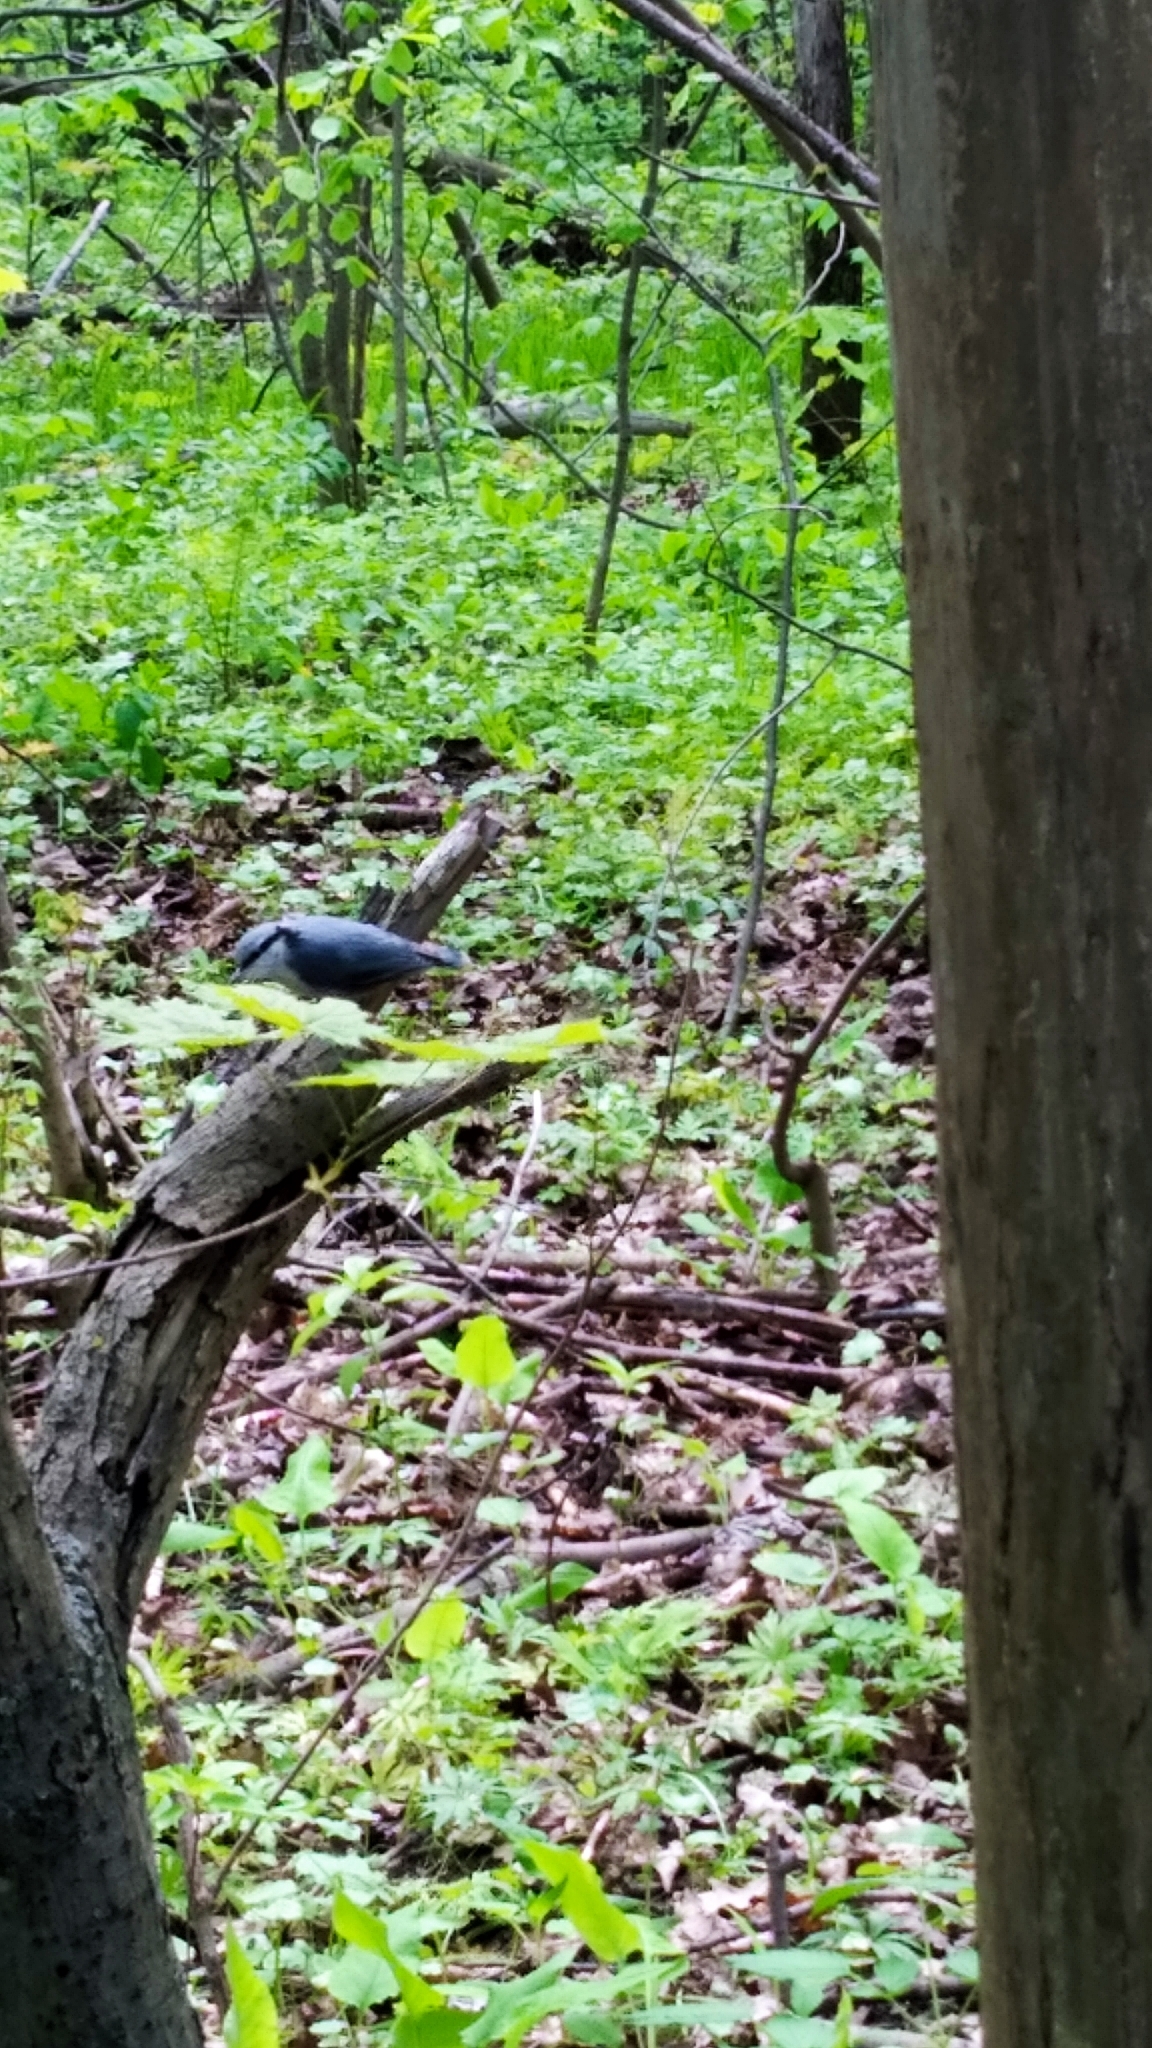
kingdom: Animalia
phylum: Chordata
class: Aves
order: Passeriformes
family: Sittidae
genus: Sitta
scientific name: Sitta europaea
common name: Eurasian nuthatch
